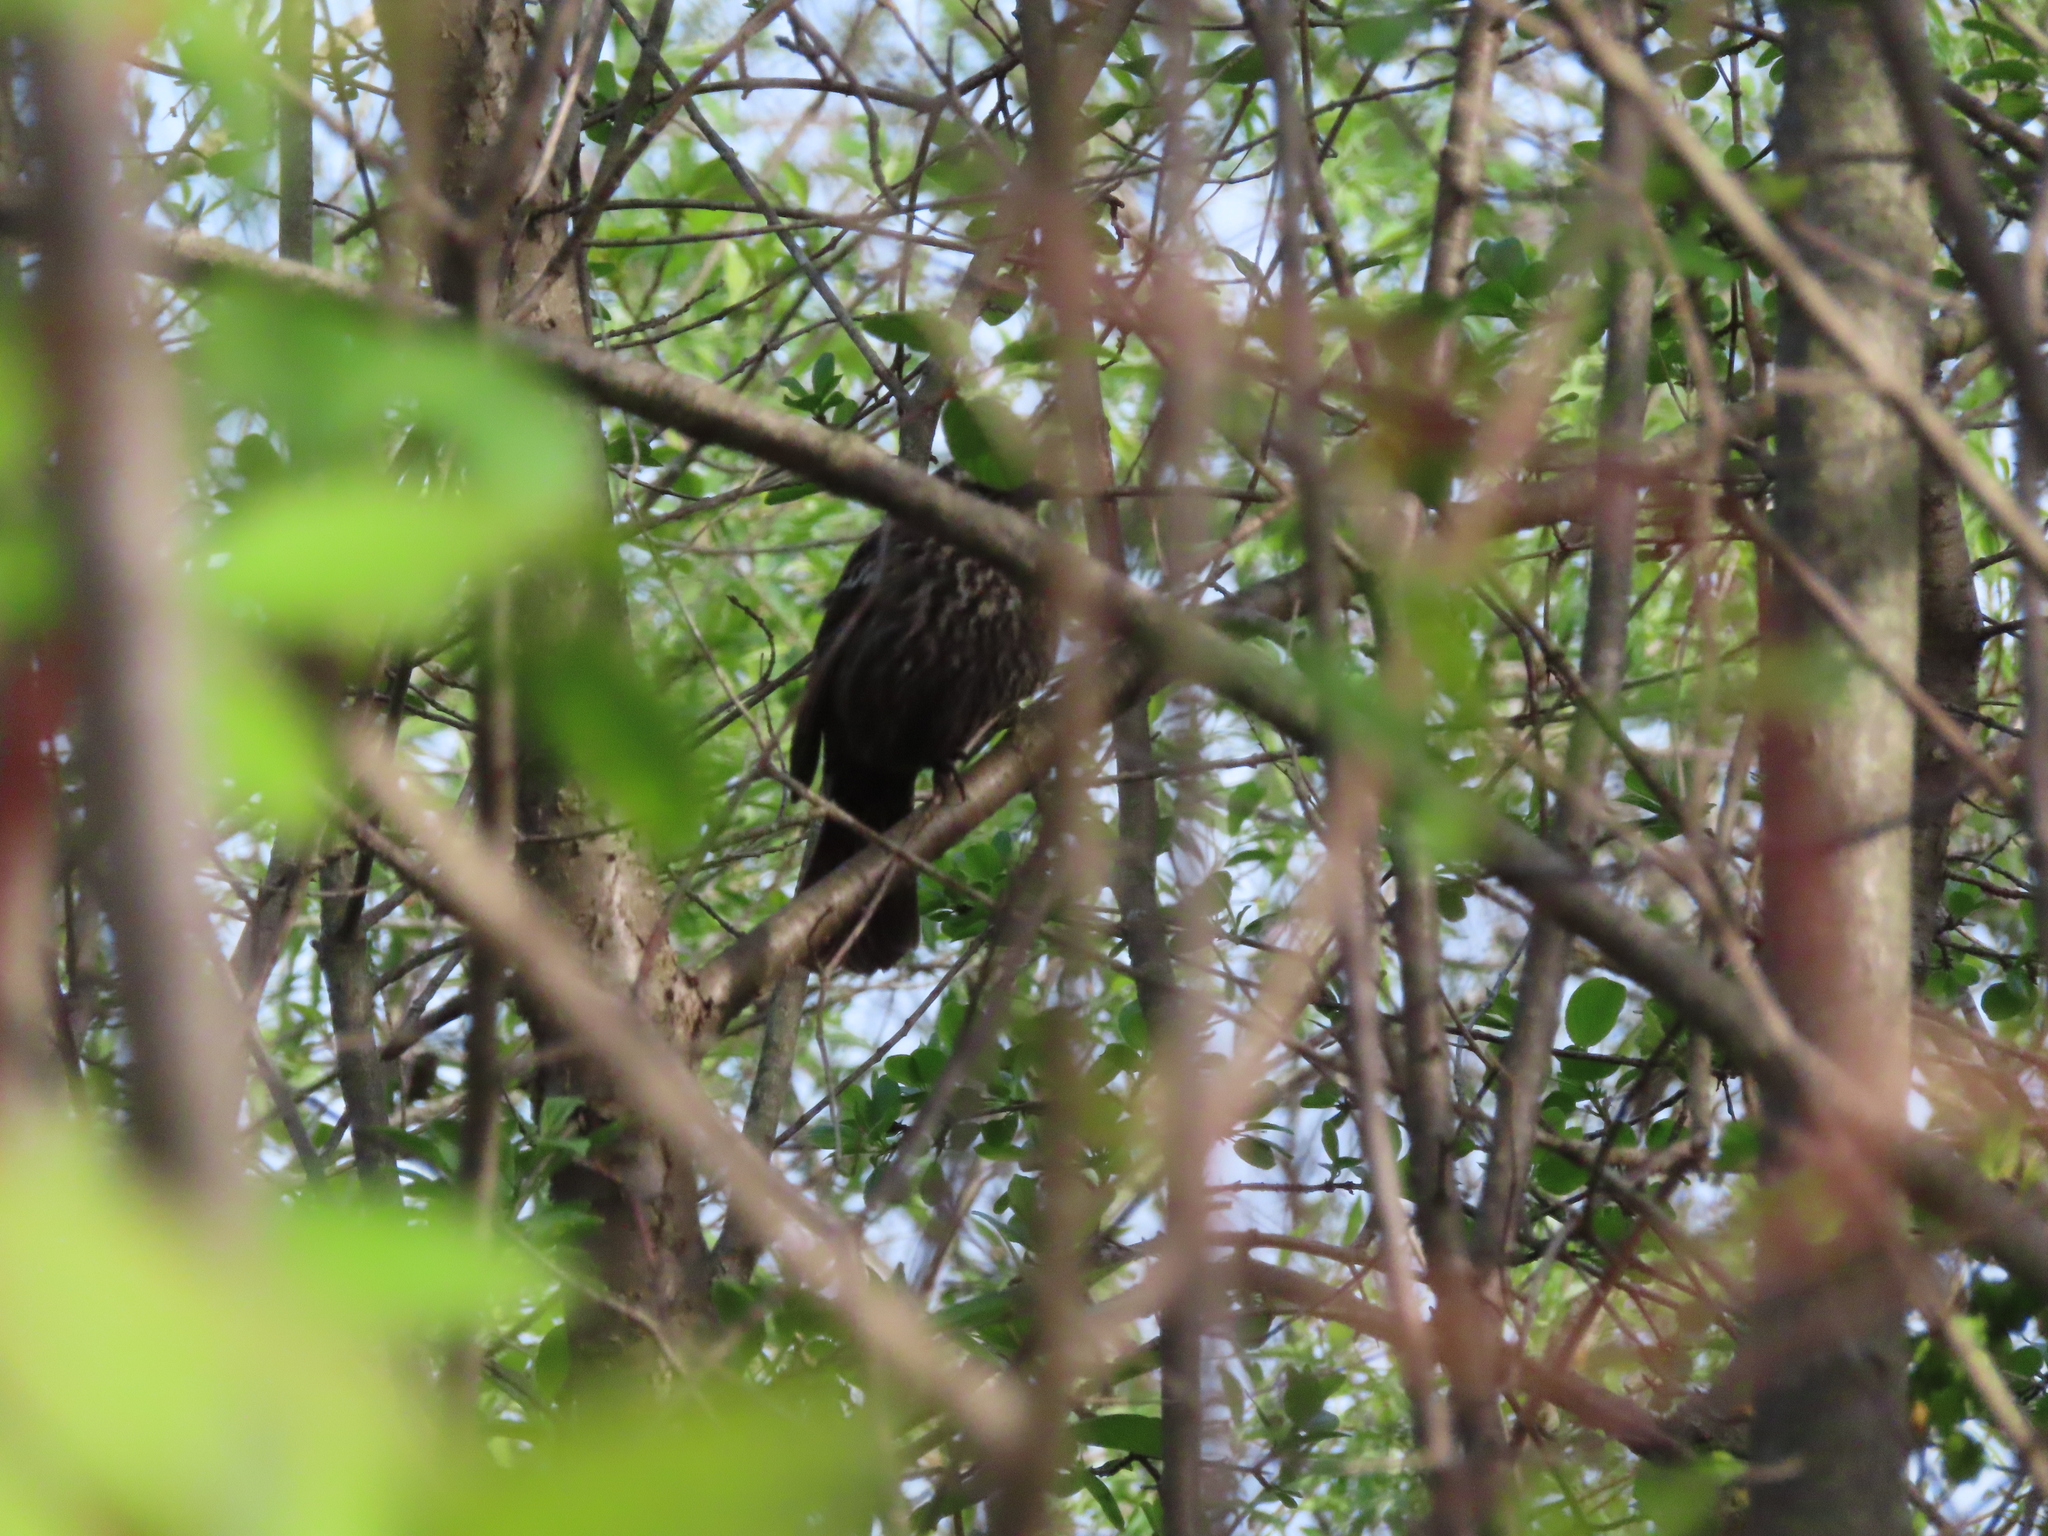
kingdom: Animalia
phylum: Chordata
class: Aves
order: Passeriformes
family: Icteridae
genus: Agelaius
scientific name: Agelaius phoeniceus
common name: Red-winged blackbird
